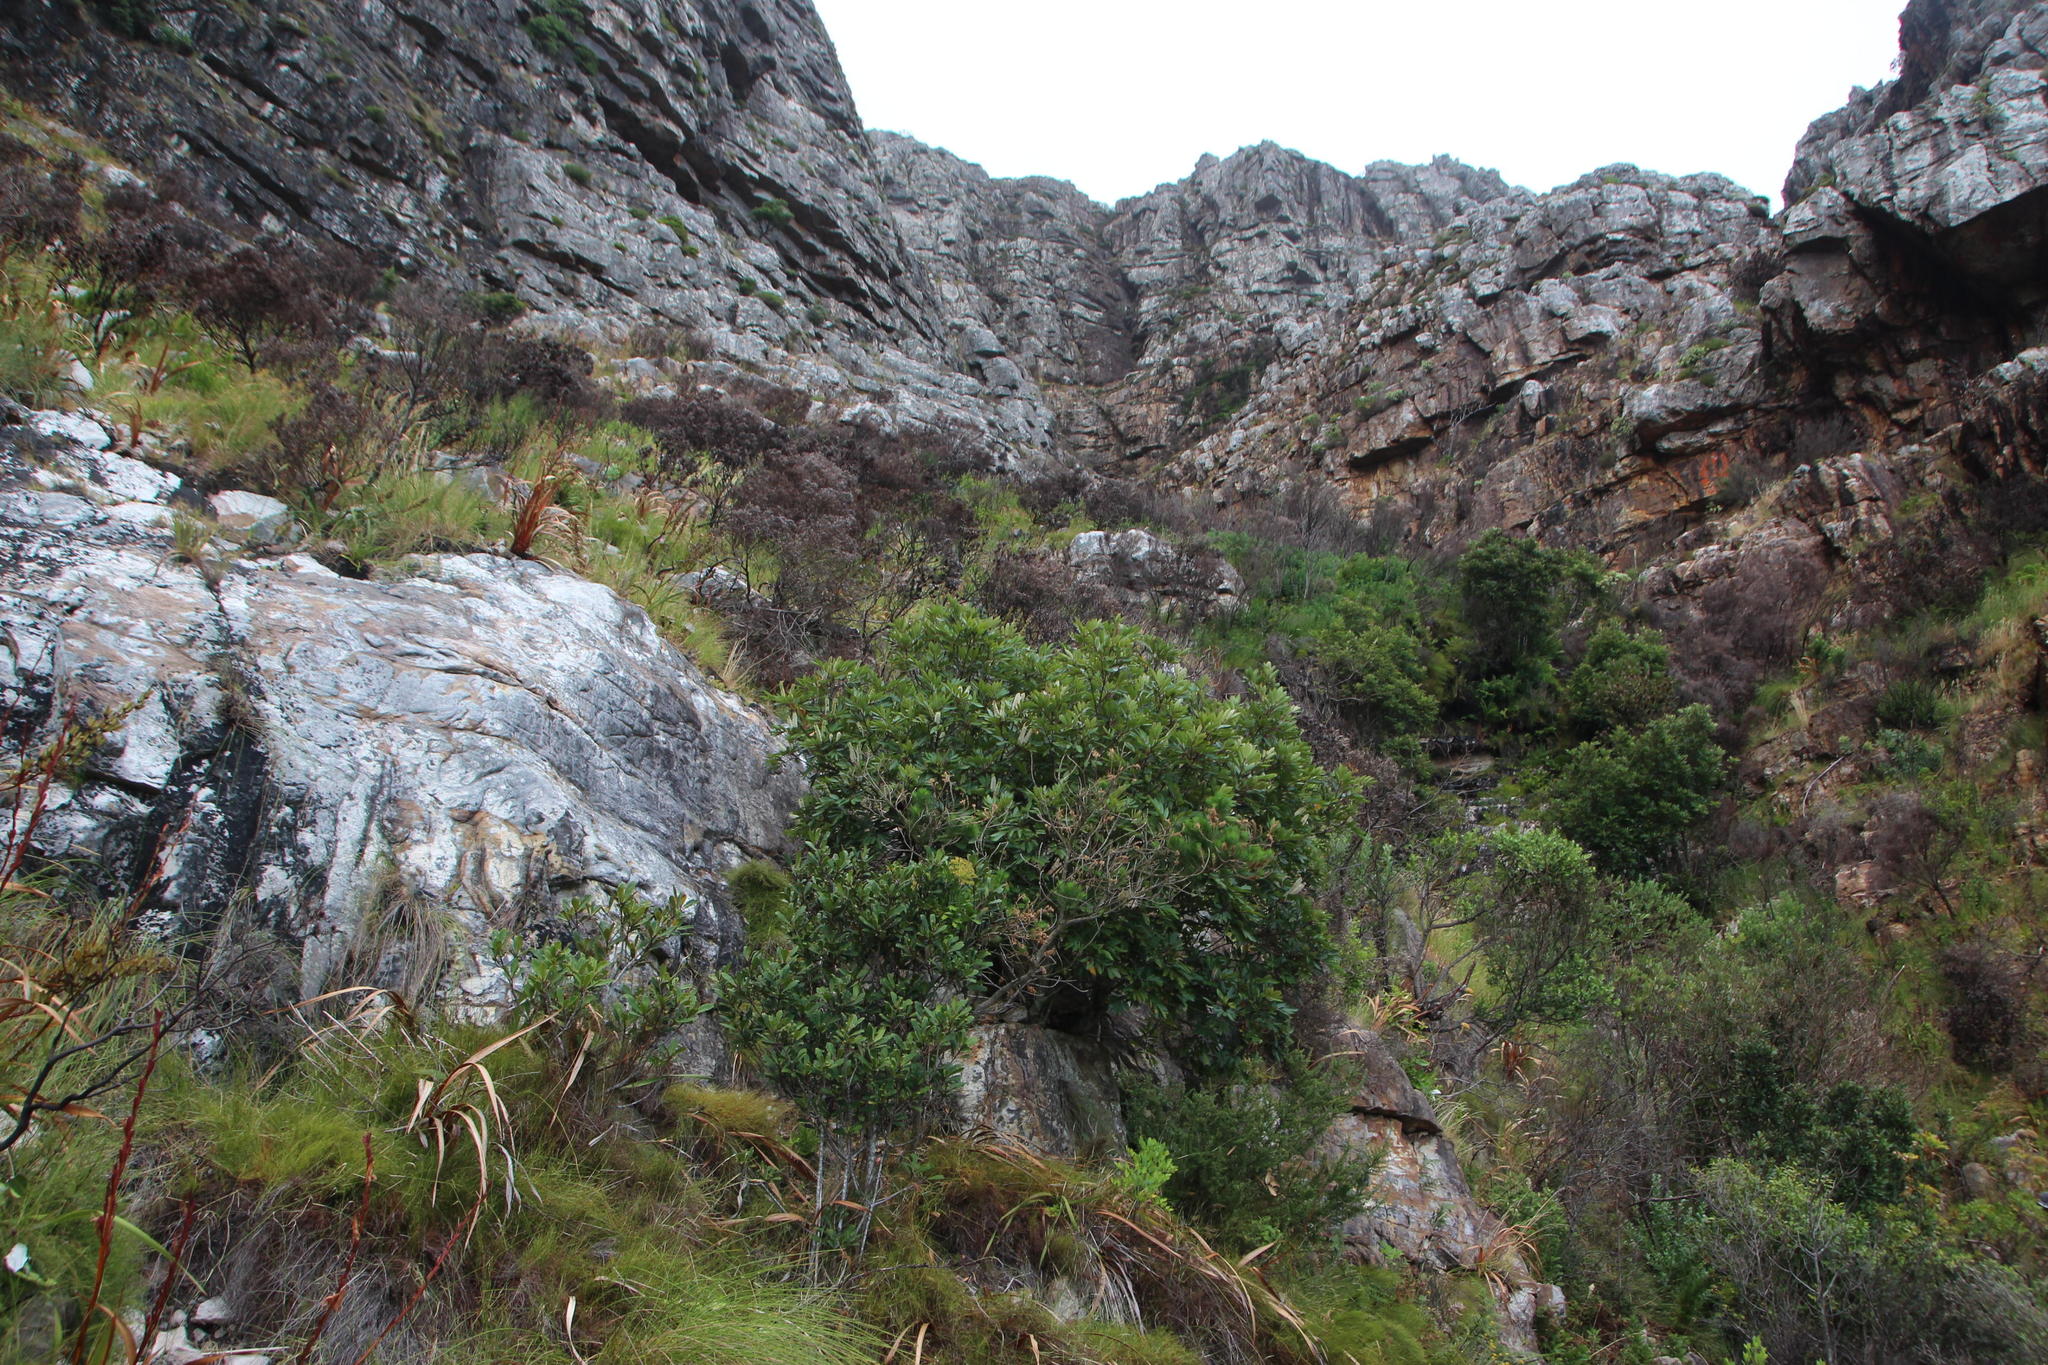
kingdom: Plantae
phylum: Tracheophyta
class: Magnoliopsida
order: Oxalidales
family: Cunoniaceae
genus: Cunonia
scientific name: Cunonia capensis
